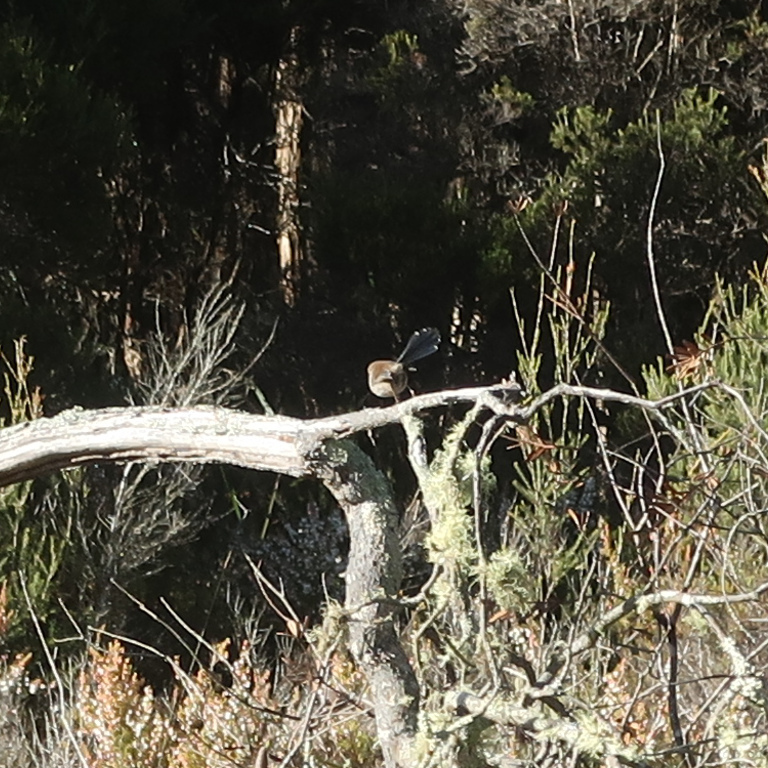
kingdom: Animalia
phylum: Chordata
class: Aves
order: Passeriformes
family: Maluridae
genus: Malurus
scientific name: Malurus cyaneus
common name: Superb fairywren
